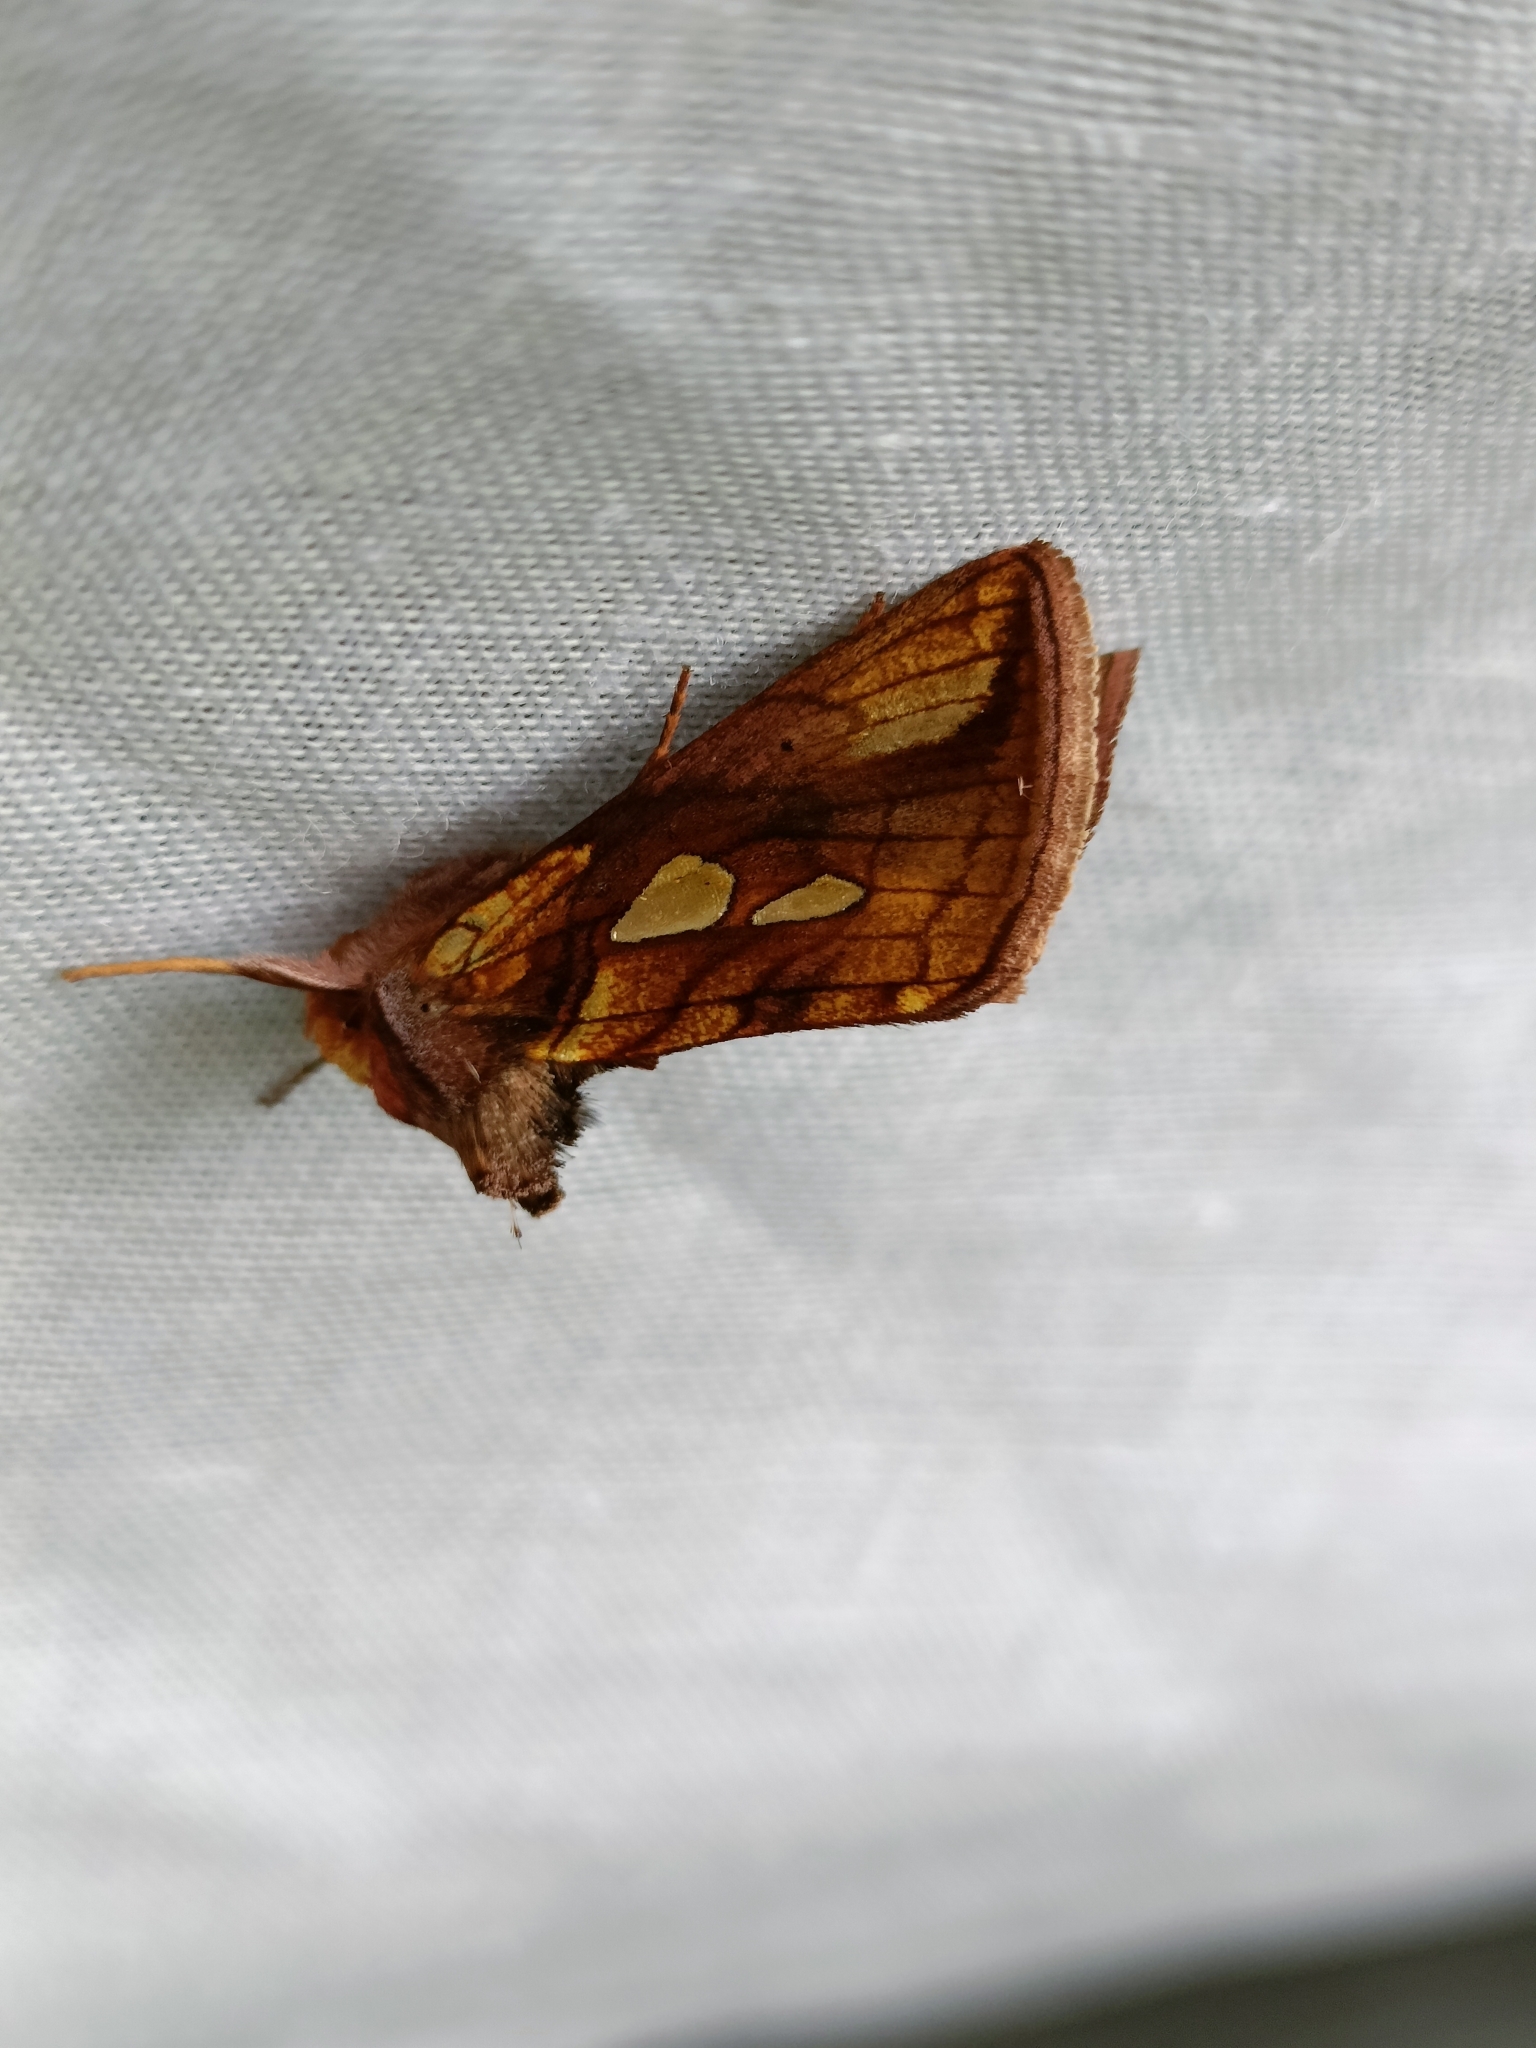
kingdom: Animalia
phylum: Arthropoda
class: Insecta
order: Lepidoptera
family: Noctuidae
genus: Plusia
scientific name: Plusia festucae
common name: Gold spot
